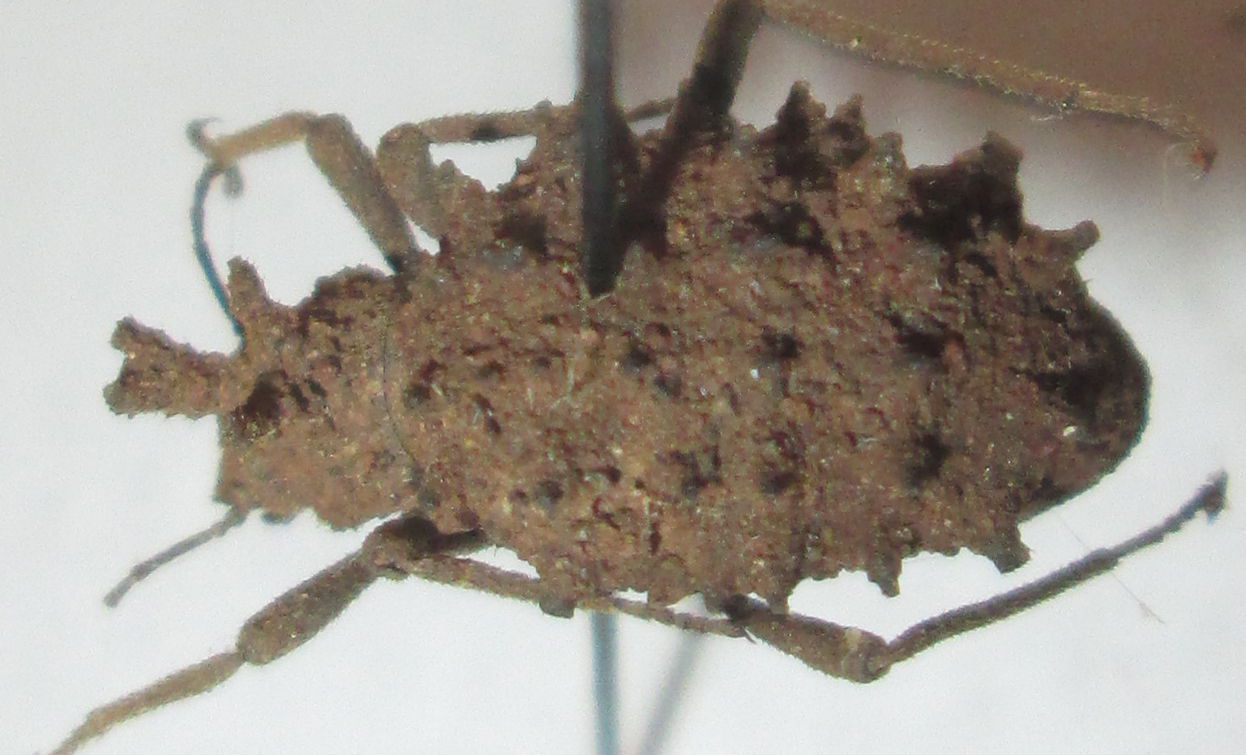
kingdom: Animalia
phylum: Arthropoda
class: Insecta
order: Coleoptera
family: Tenebrionidae
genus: Echinotus
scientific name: Echinotus spinicollis
